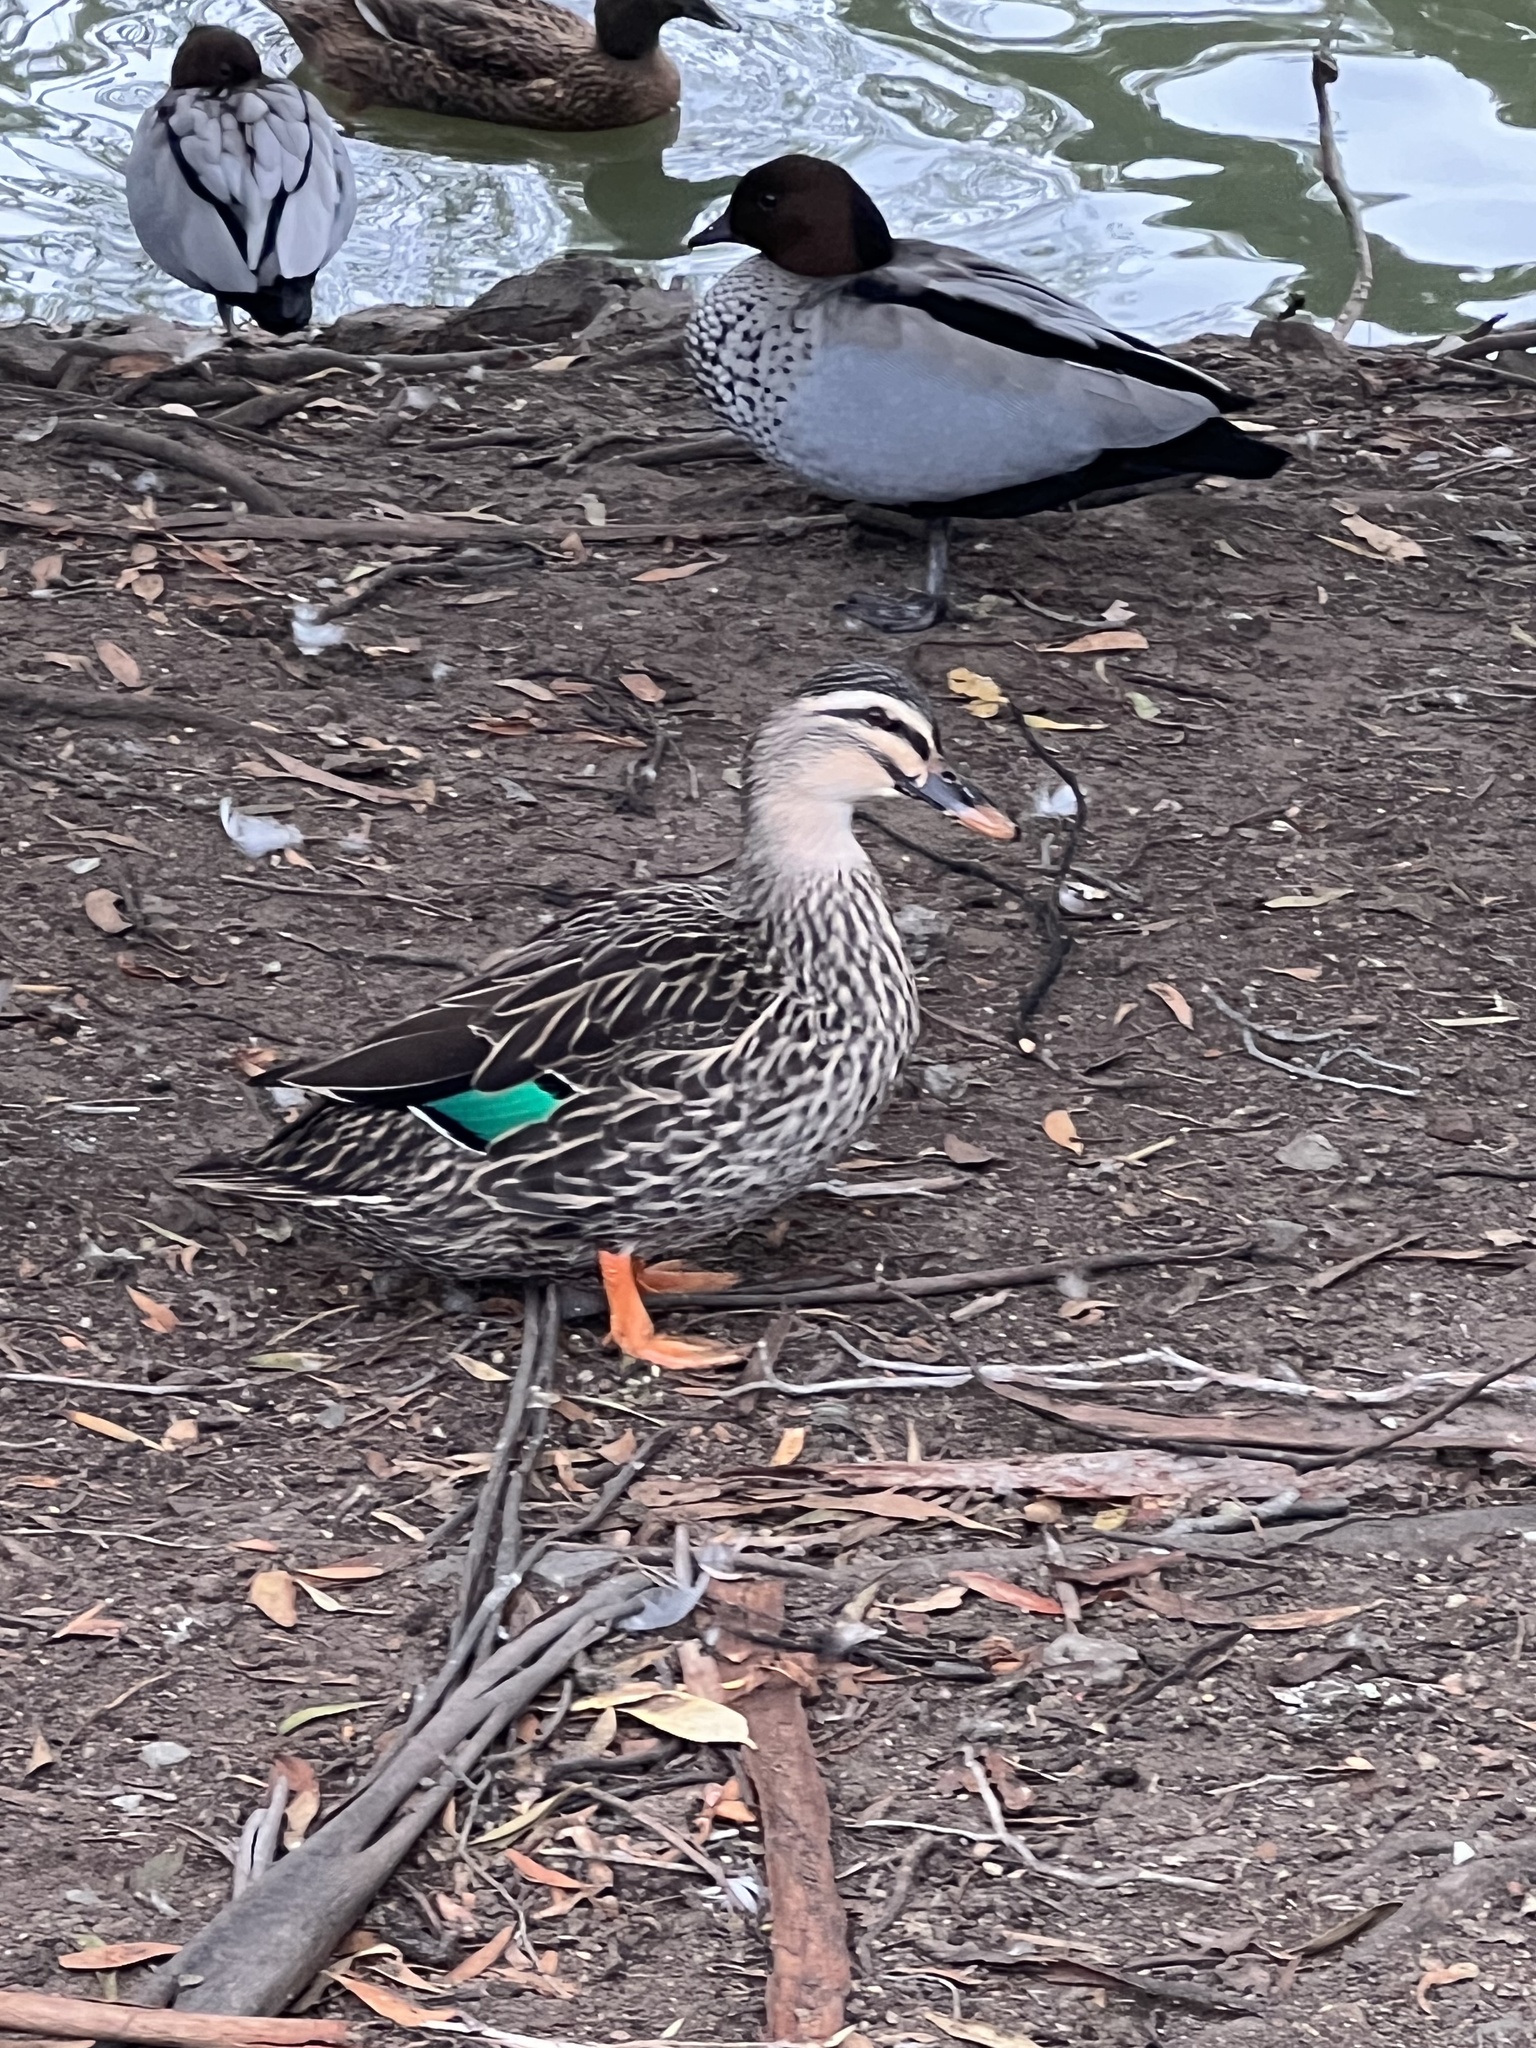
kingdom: Animalia
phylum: Chordata
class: Aves
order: Anseriformes
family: Anatidae
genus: Anas
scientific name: Anas
